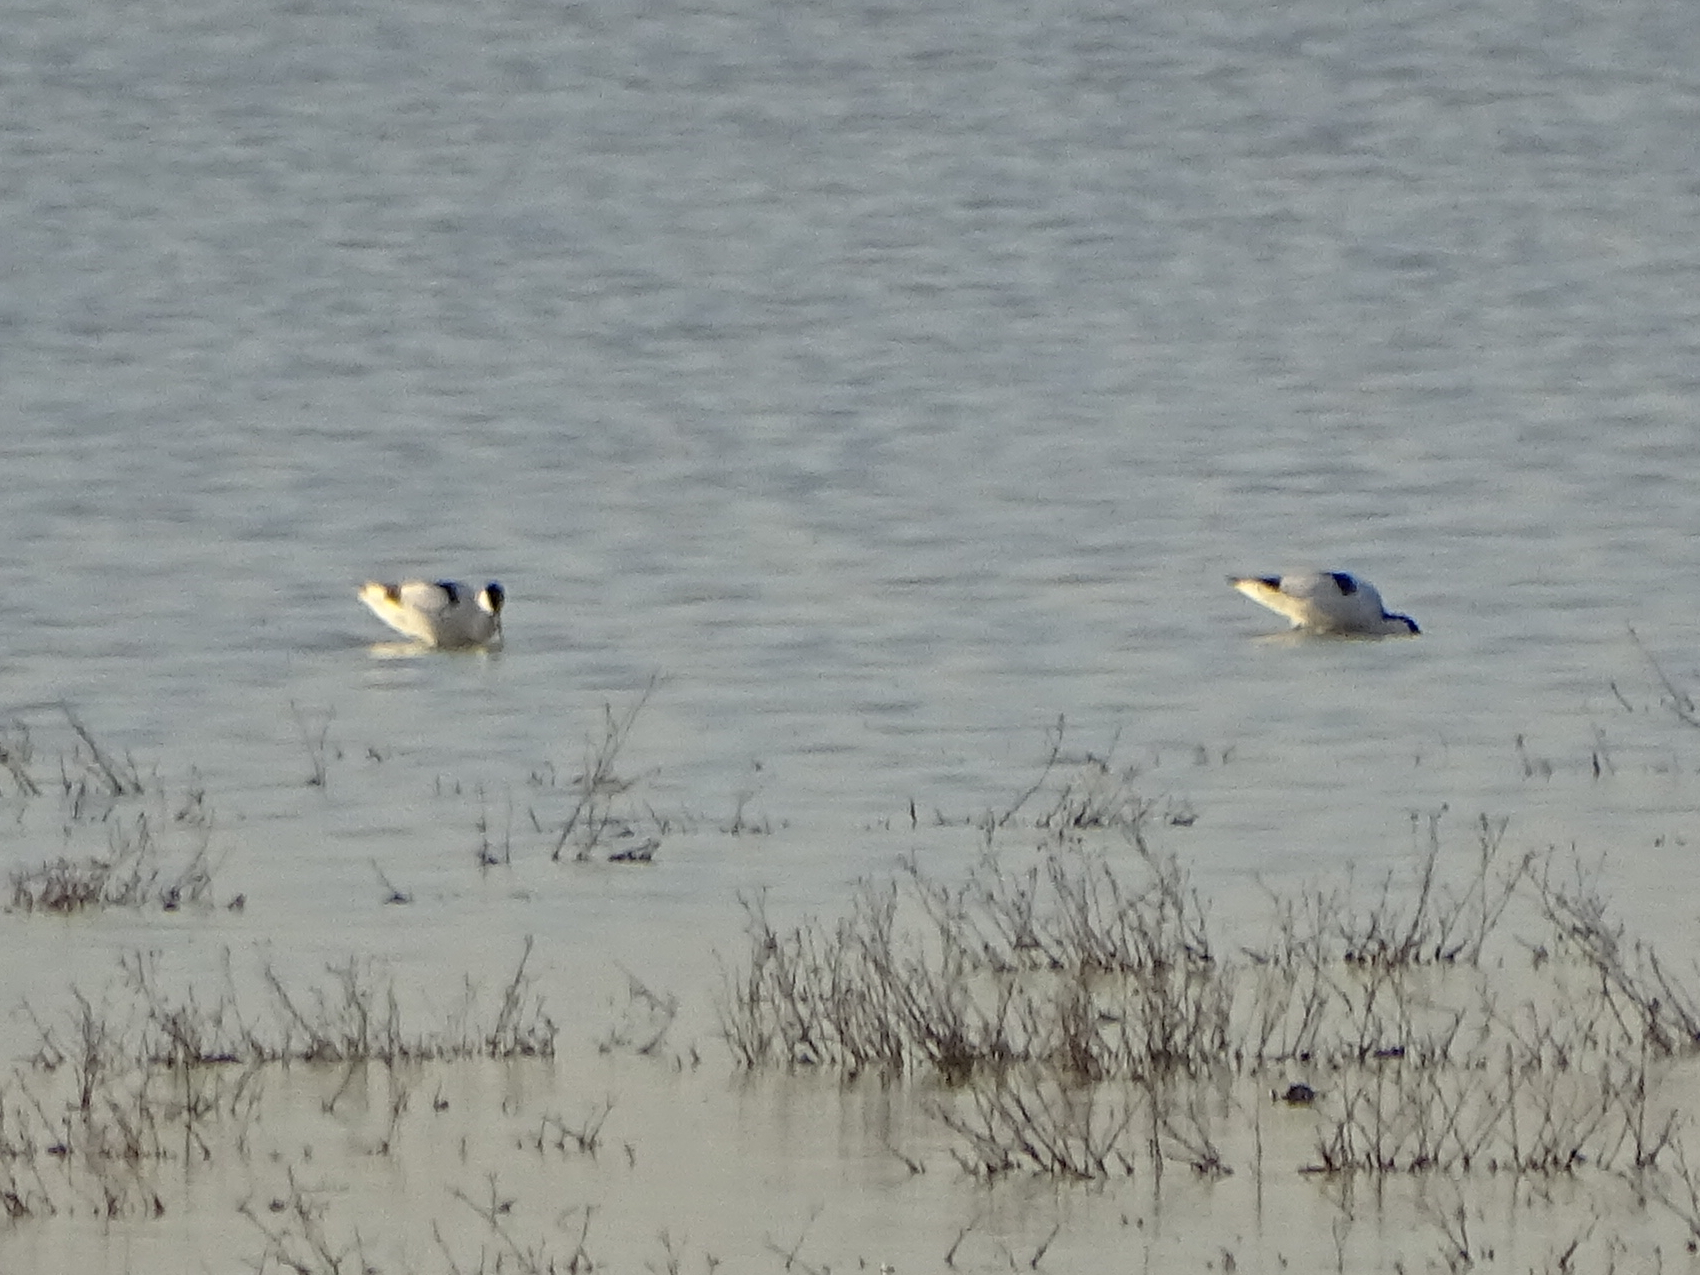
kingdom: Animalia
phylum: Chordata
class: Aves
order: Charadriiformes
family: Recurvirostridae
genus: Recurvirostra
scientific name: Recurvirostra avosetta
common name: Pied avocet
